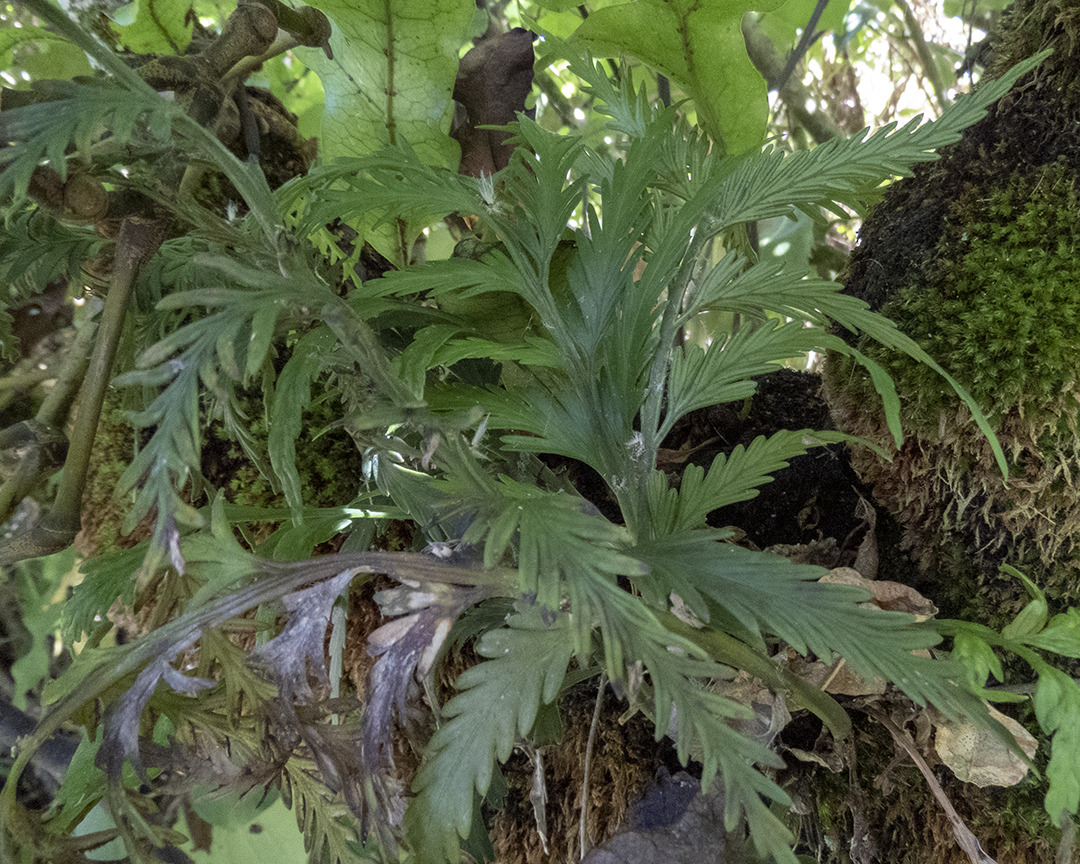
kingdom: Plantae
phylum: Tracheophyta
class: Polypodiopsida
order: Polypodiales
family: Aspleniaceae
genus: Asplenium
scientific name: Asplenium flaccidum
